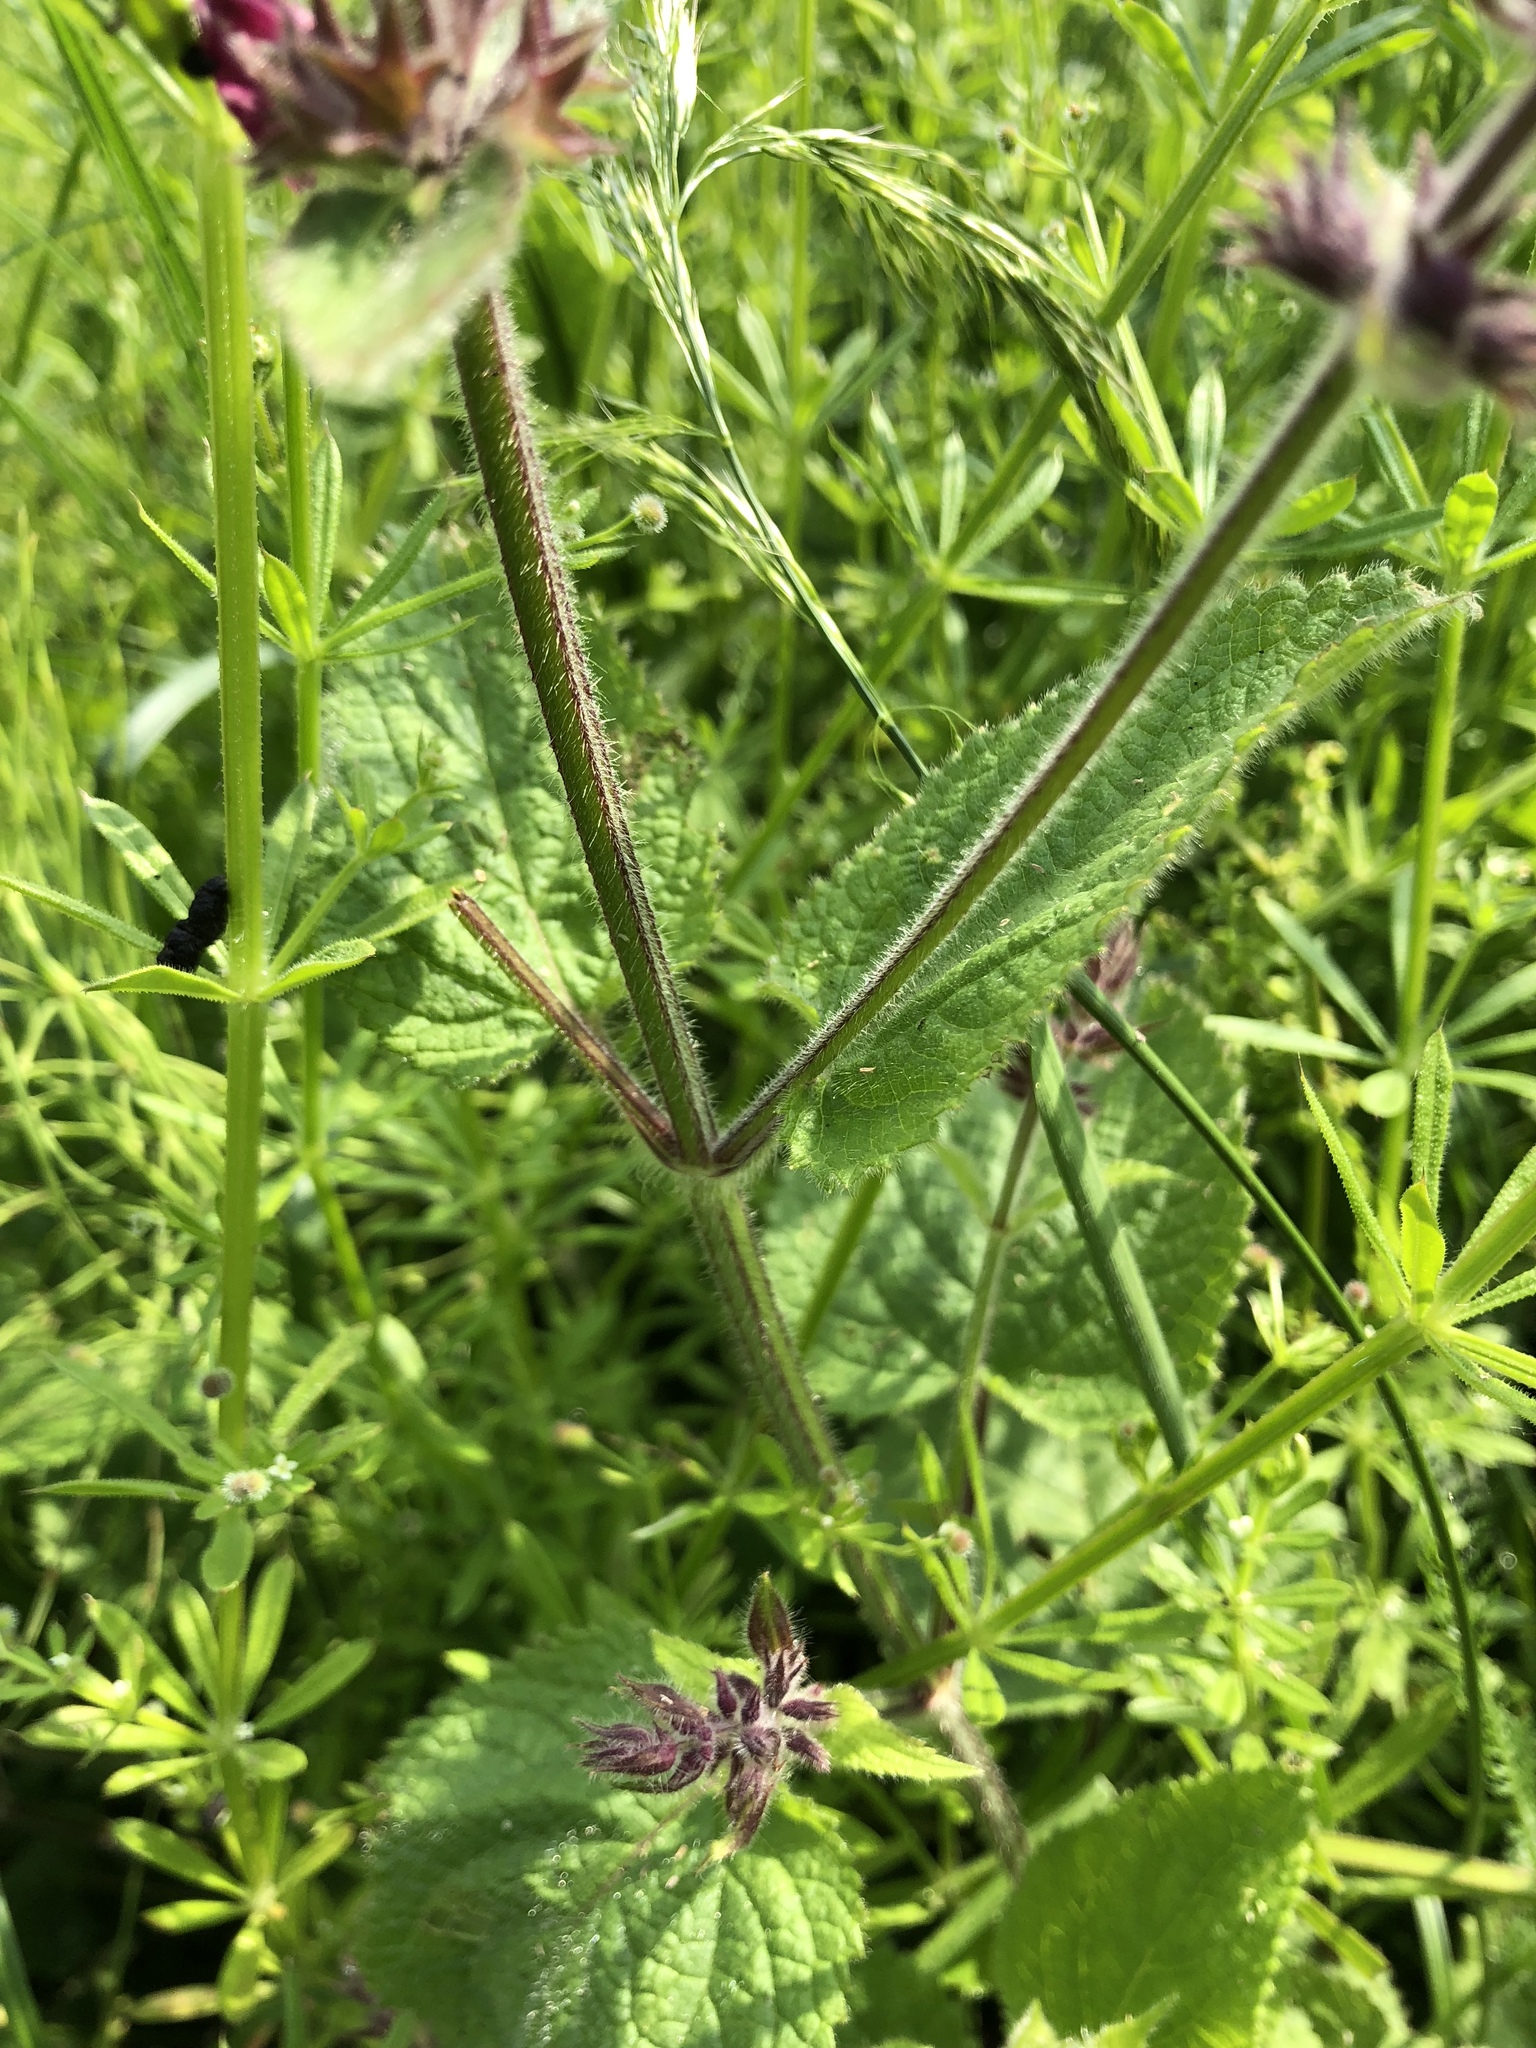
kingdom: Plantae
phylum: Tracheophyta
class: Magnoliopsida
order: Lamiales
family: Lamiaceae
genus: Stachys
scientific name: Stachys sylvatica
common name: Hedge woundwort
